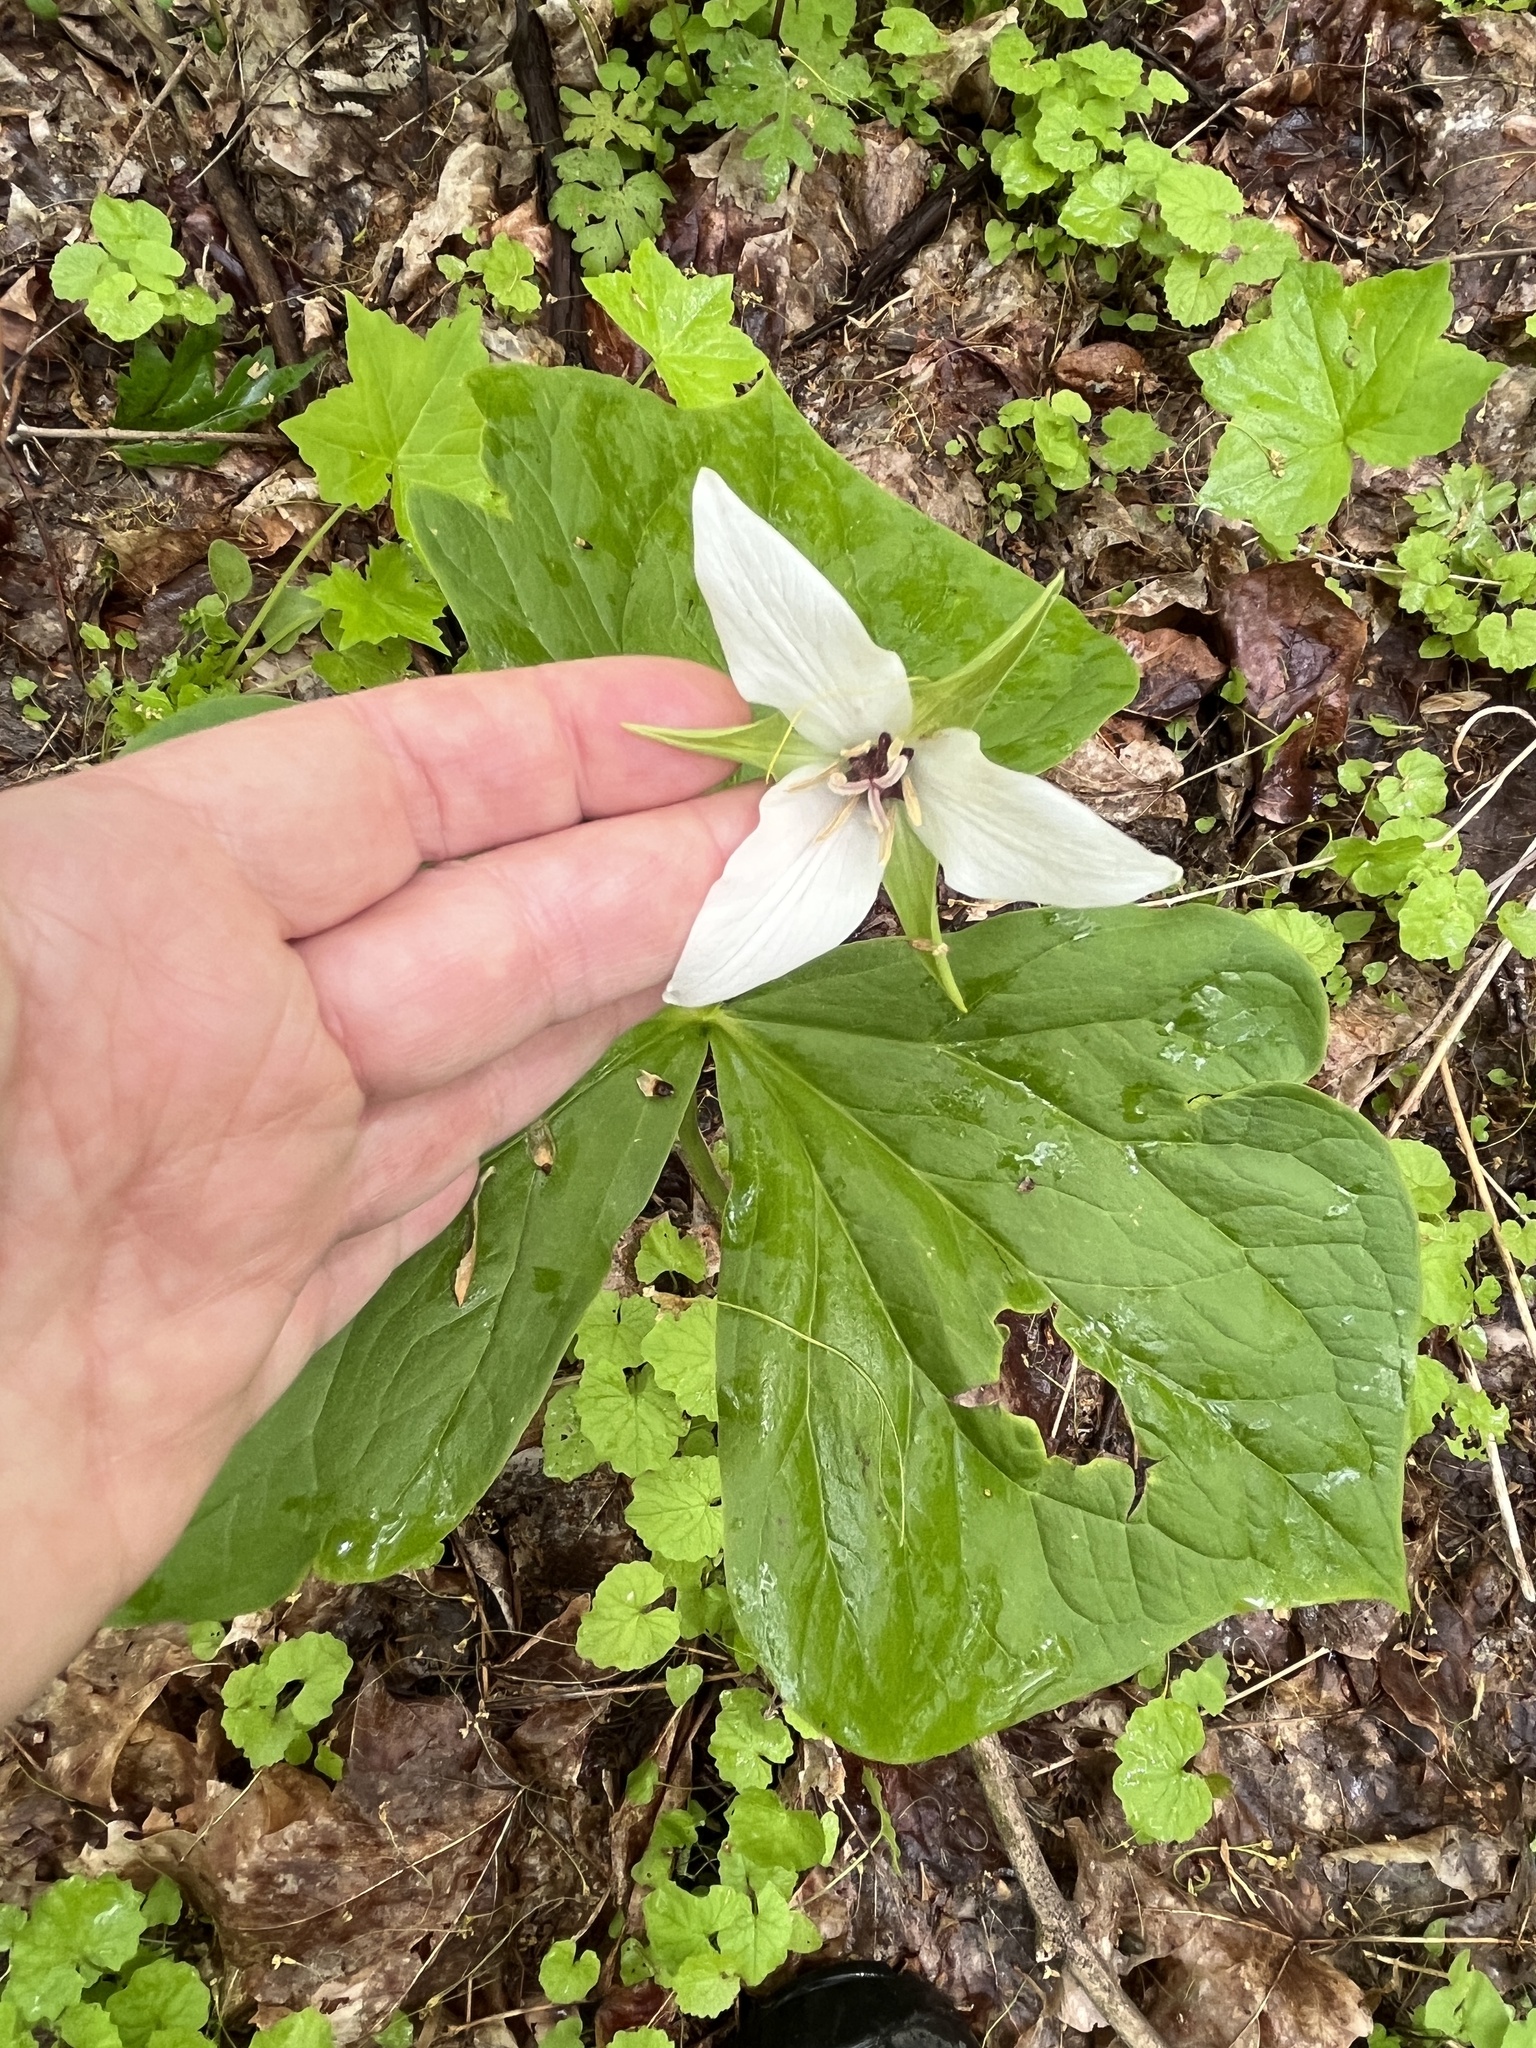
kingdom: Plantae
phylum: Tracheophyta
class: Liliopsida
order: Liliales
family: Melanthiaceae
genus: Trillium
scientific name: Trillium erectum
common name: Purple trillium
